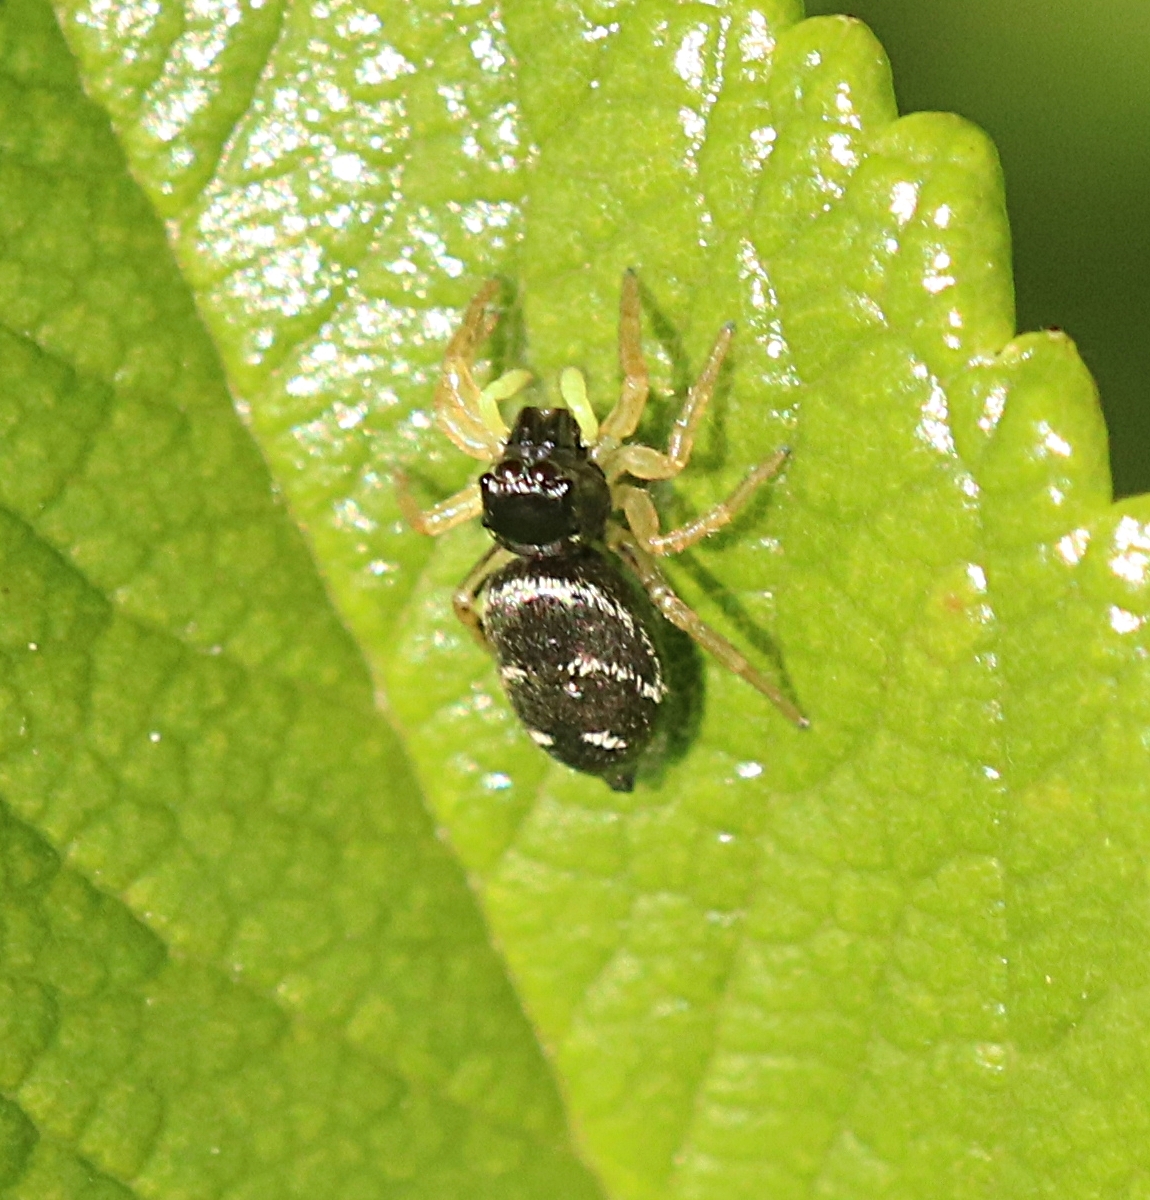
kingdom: Animalia
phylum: Arthropoda
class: Arachnida
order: Araneae
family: Salticidae
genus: Heliophanus
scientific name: Heliophanus cupreus
